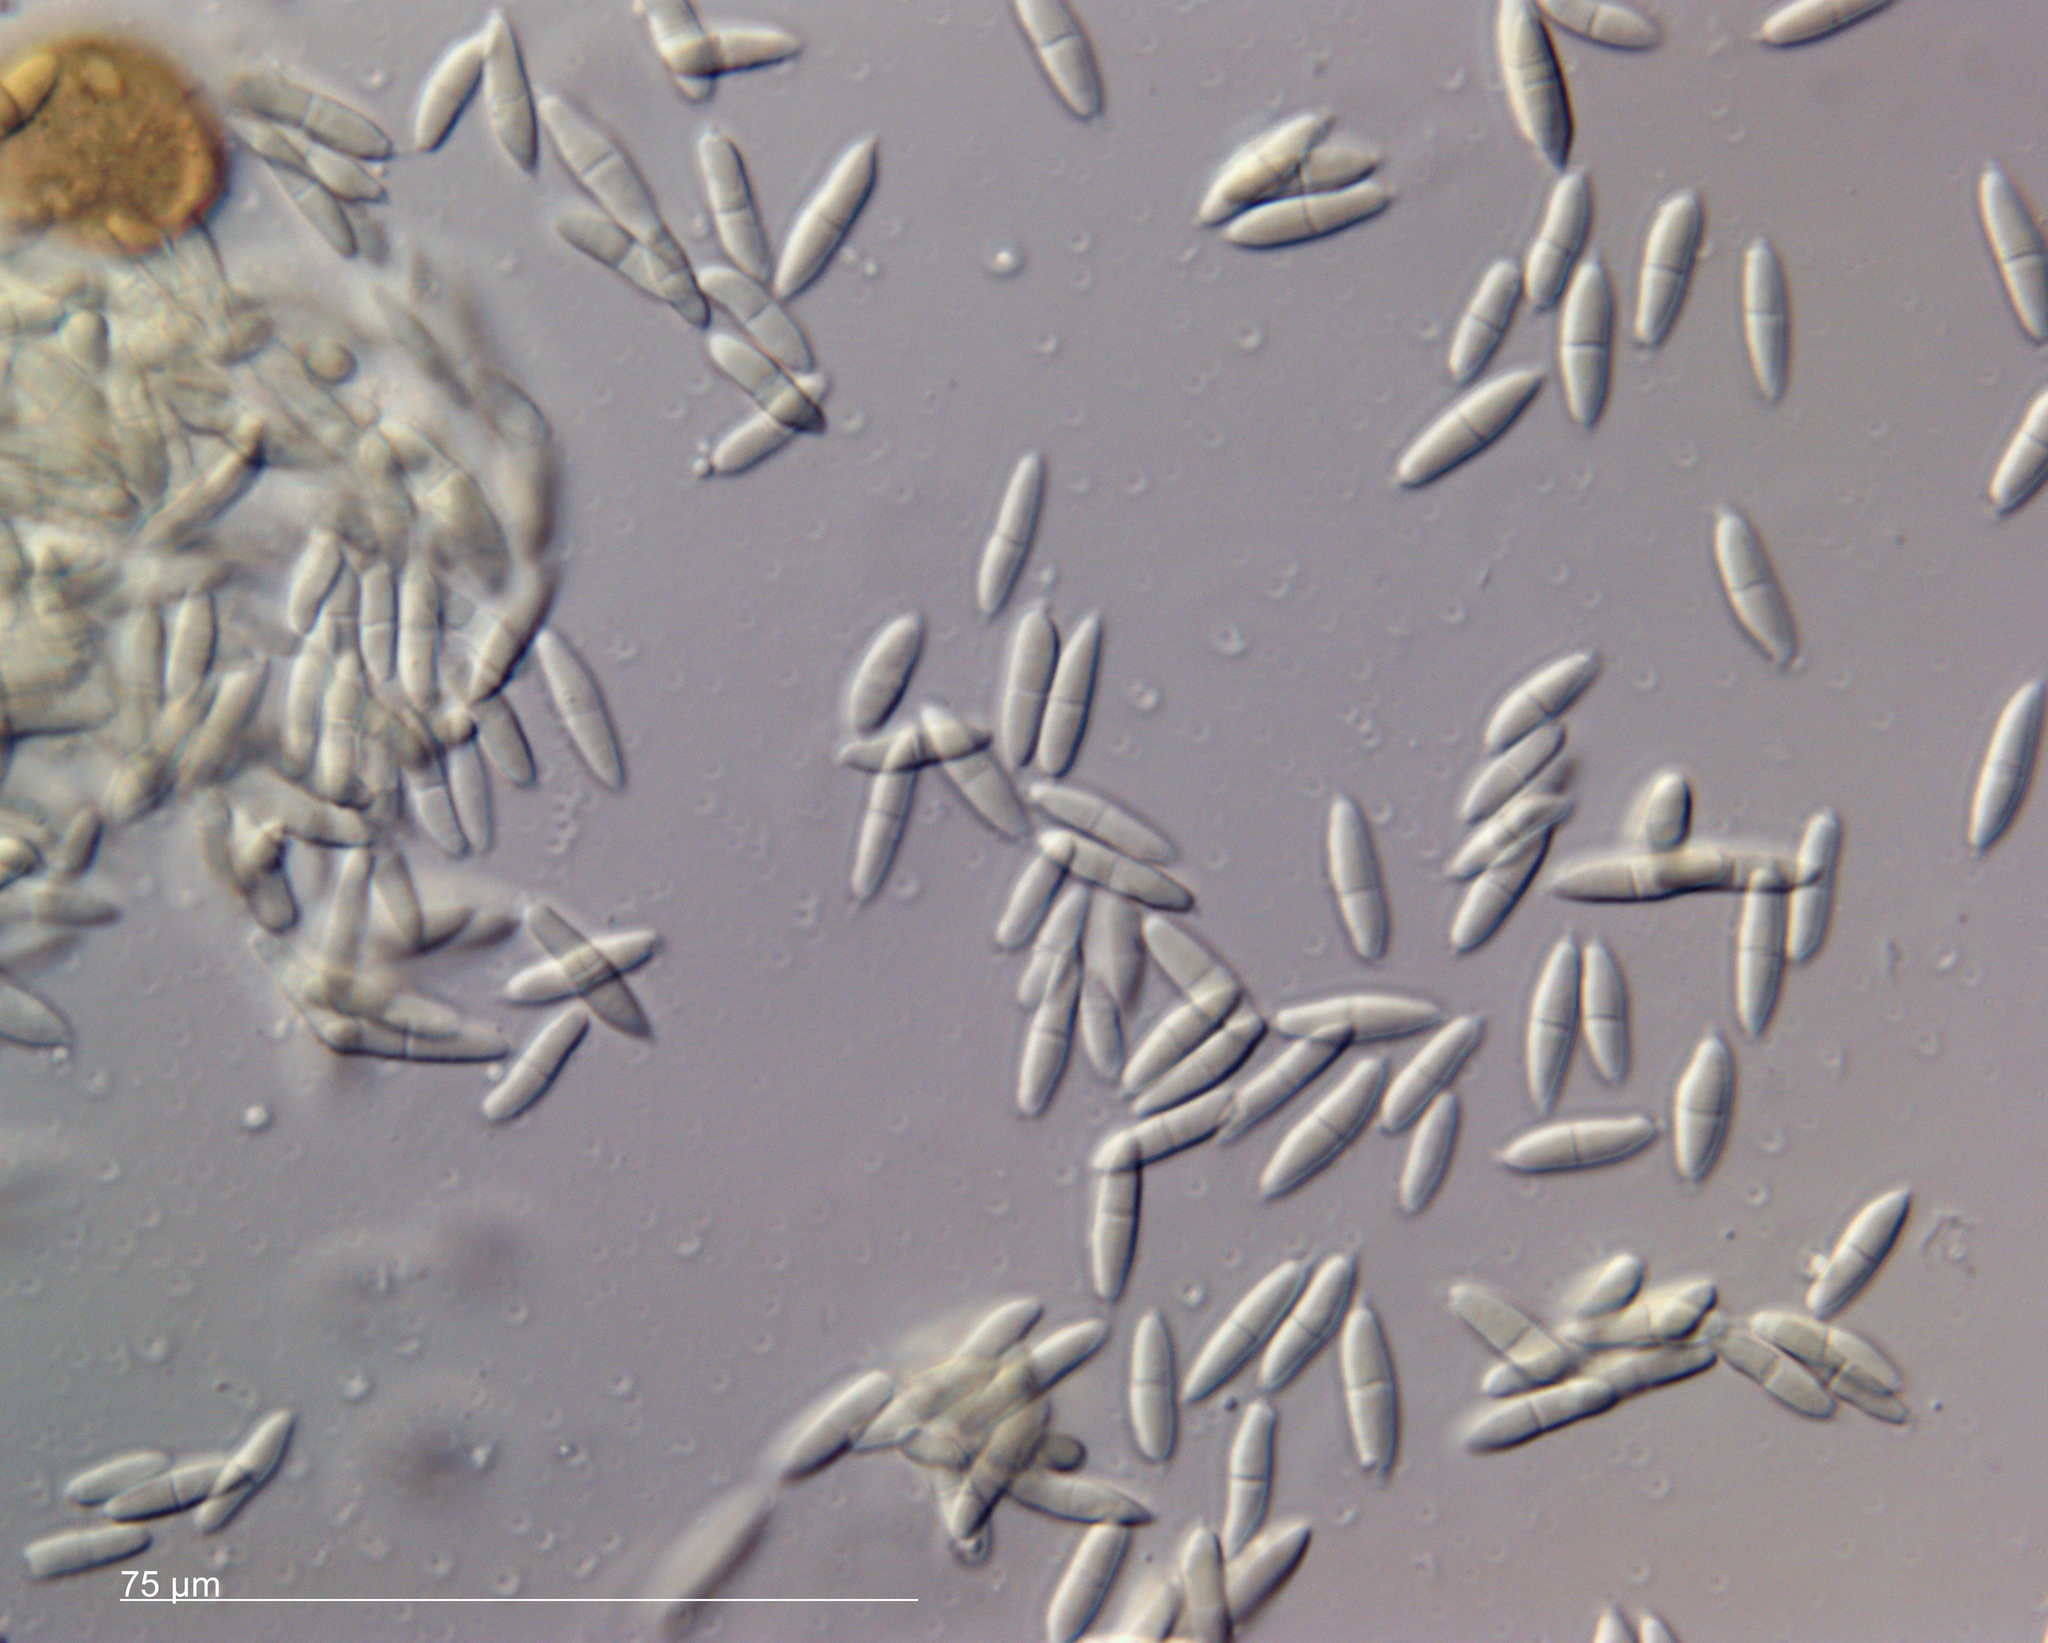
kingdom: Fungi
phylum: Ascomycota
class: Dothideomycetes
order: Pleosporales
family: Phaeosphaeriaceae
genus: Sphaerellopsis
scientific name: Sphaerellopsis filum
